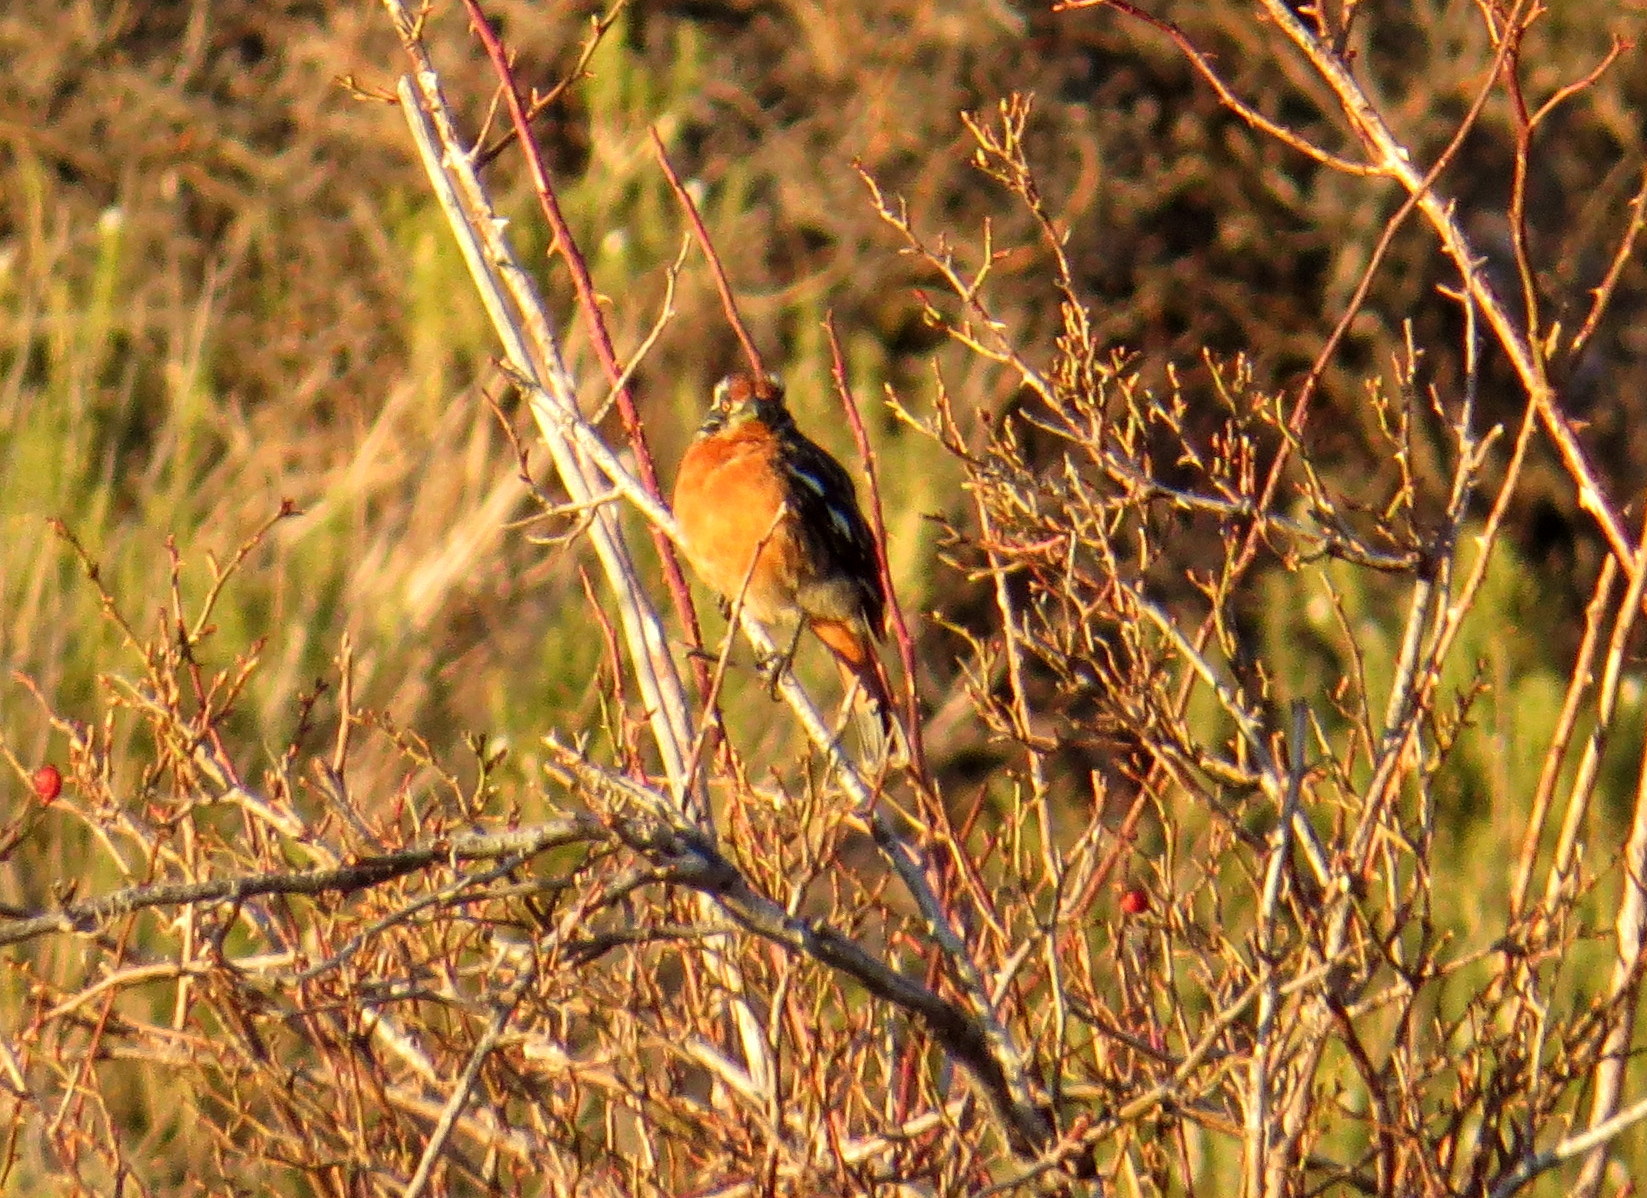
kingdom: Animalia
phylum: Chordata
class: Aves
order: Passeriformes
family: Cotingidae
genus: Phytotoma
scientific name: Phytotoma rara
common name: Rufous-tailed plantcutter
